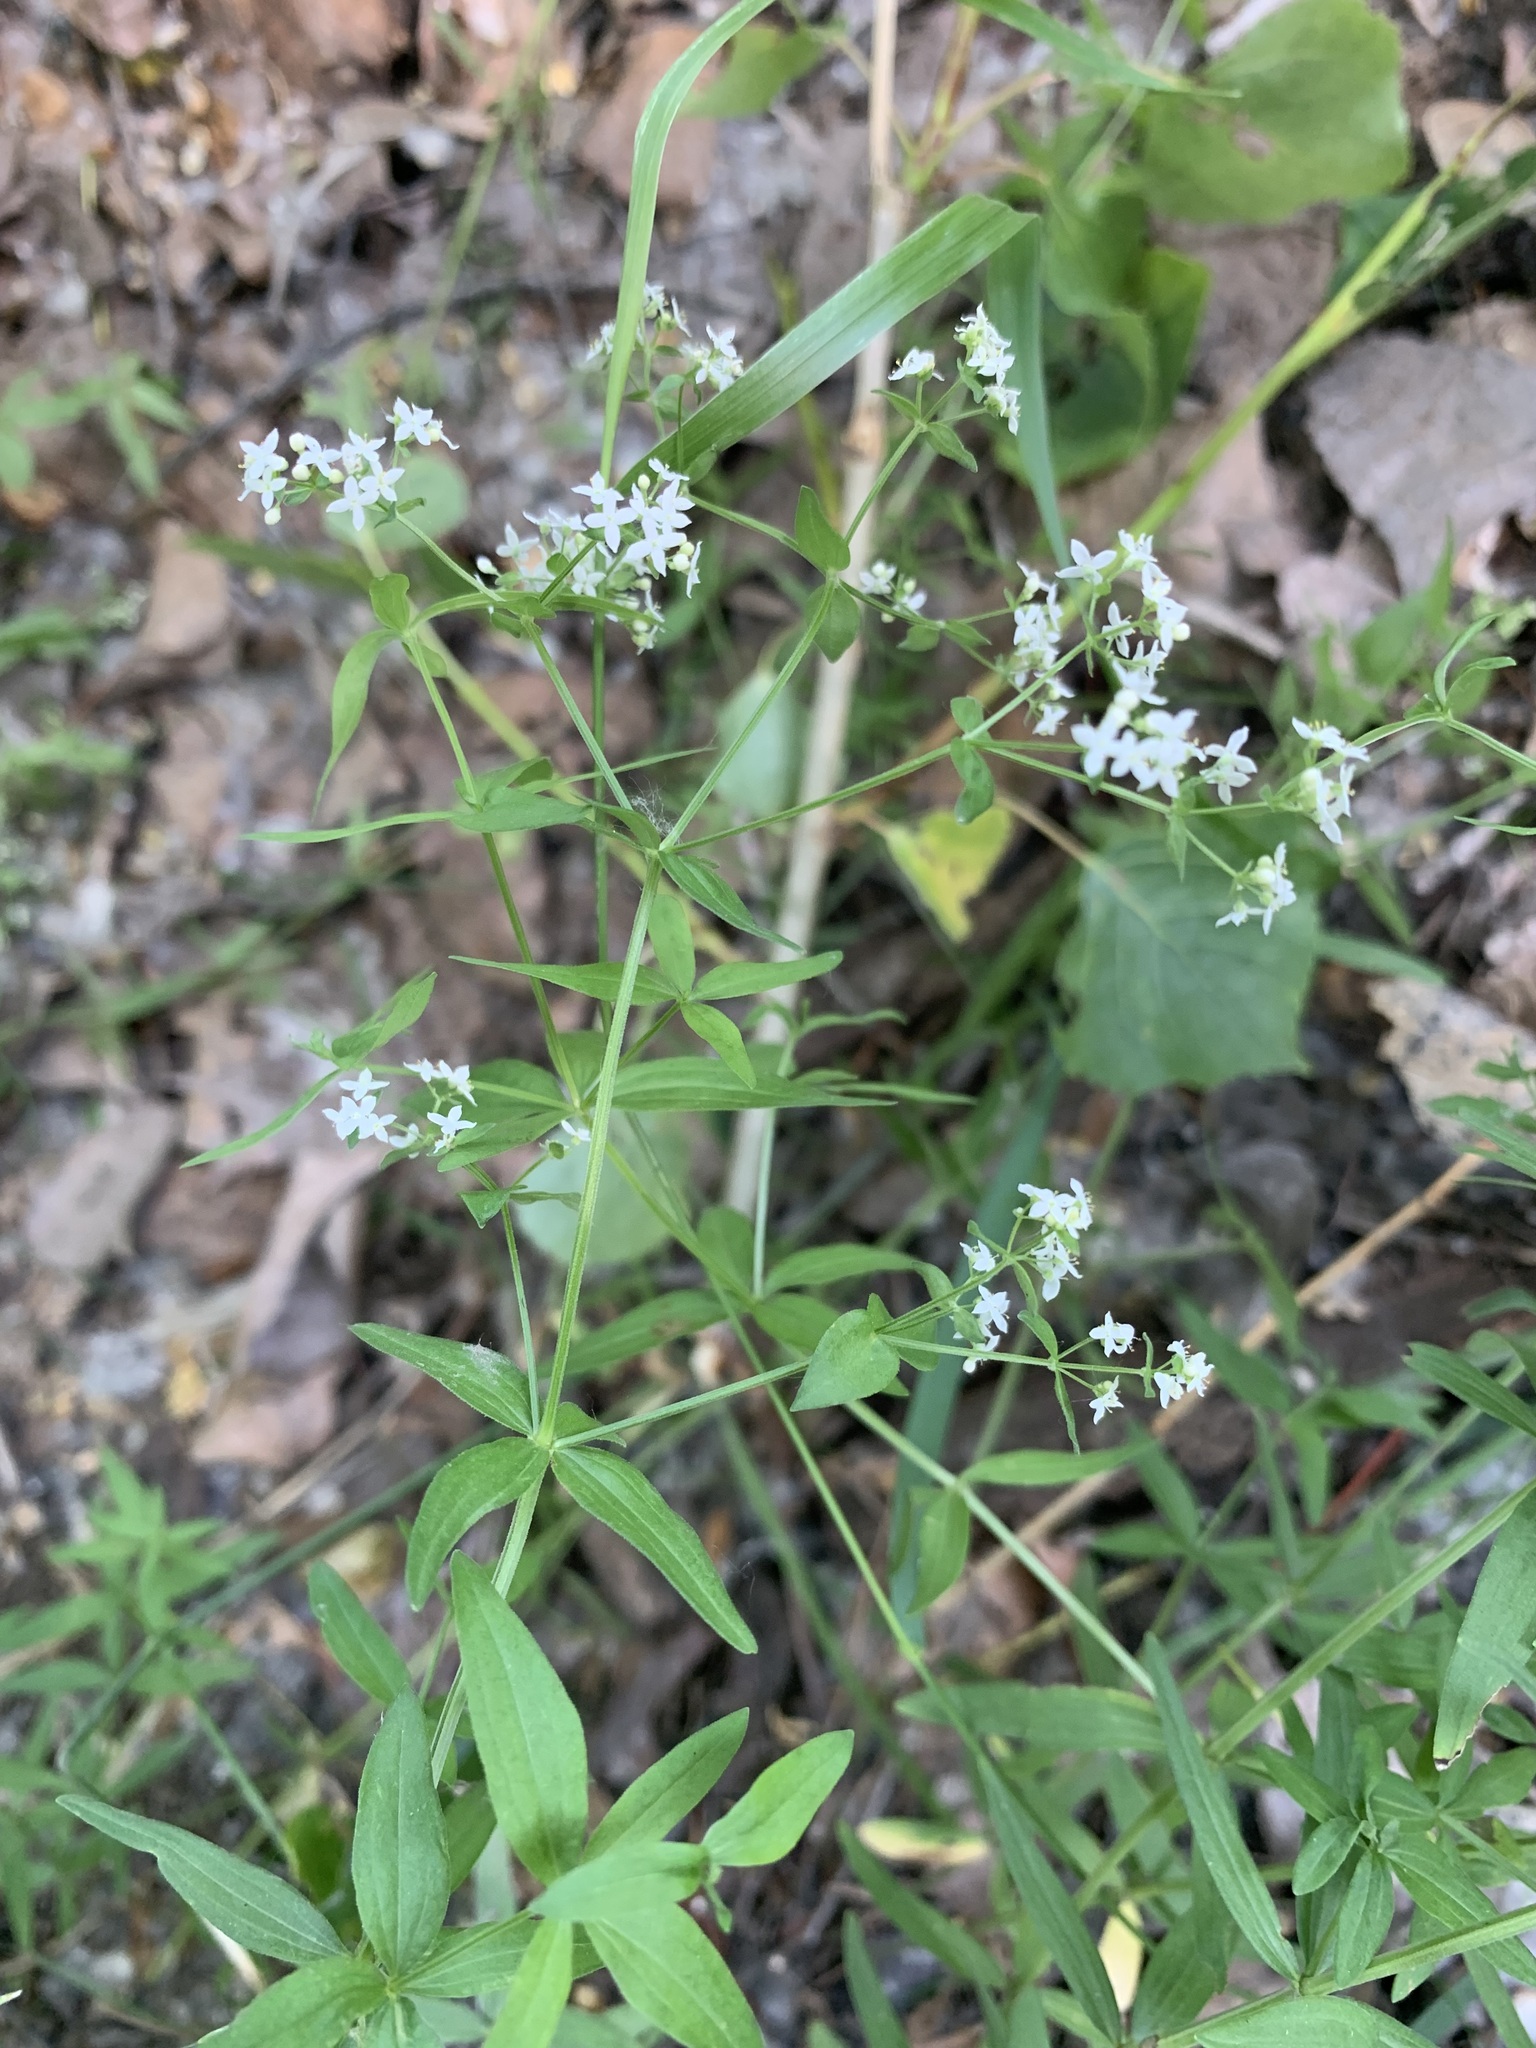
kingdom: Plantae
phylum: Tracheophyta
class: Magnoliopsida
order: Gentianales
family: Rubiaceae
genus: Galium
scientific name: Galium rubioides
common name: European bedstraw
